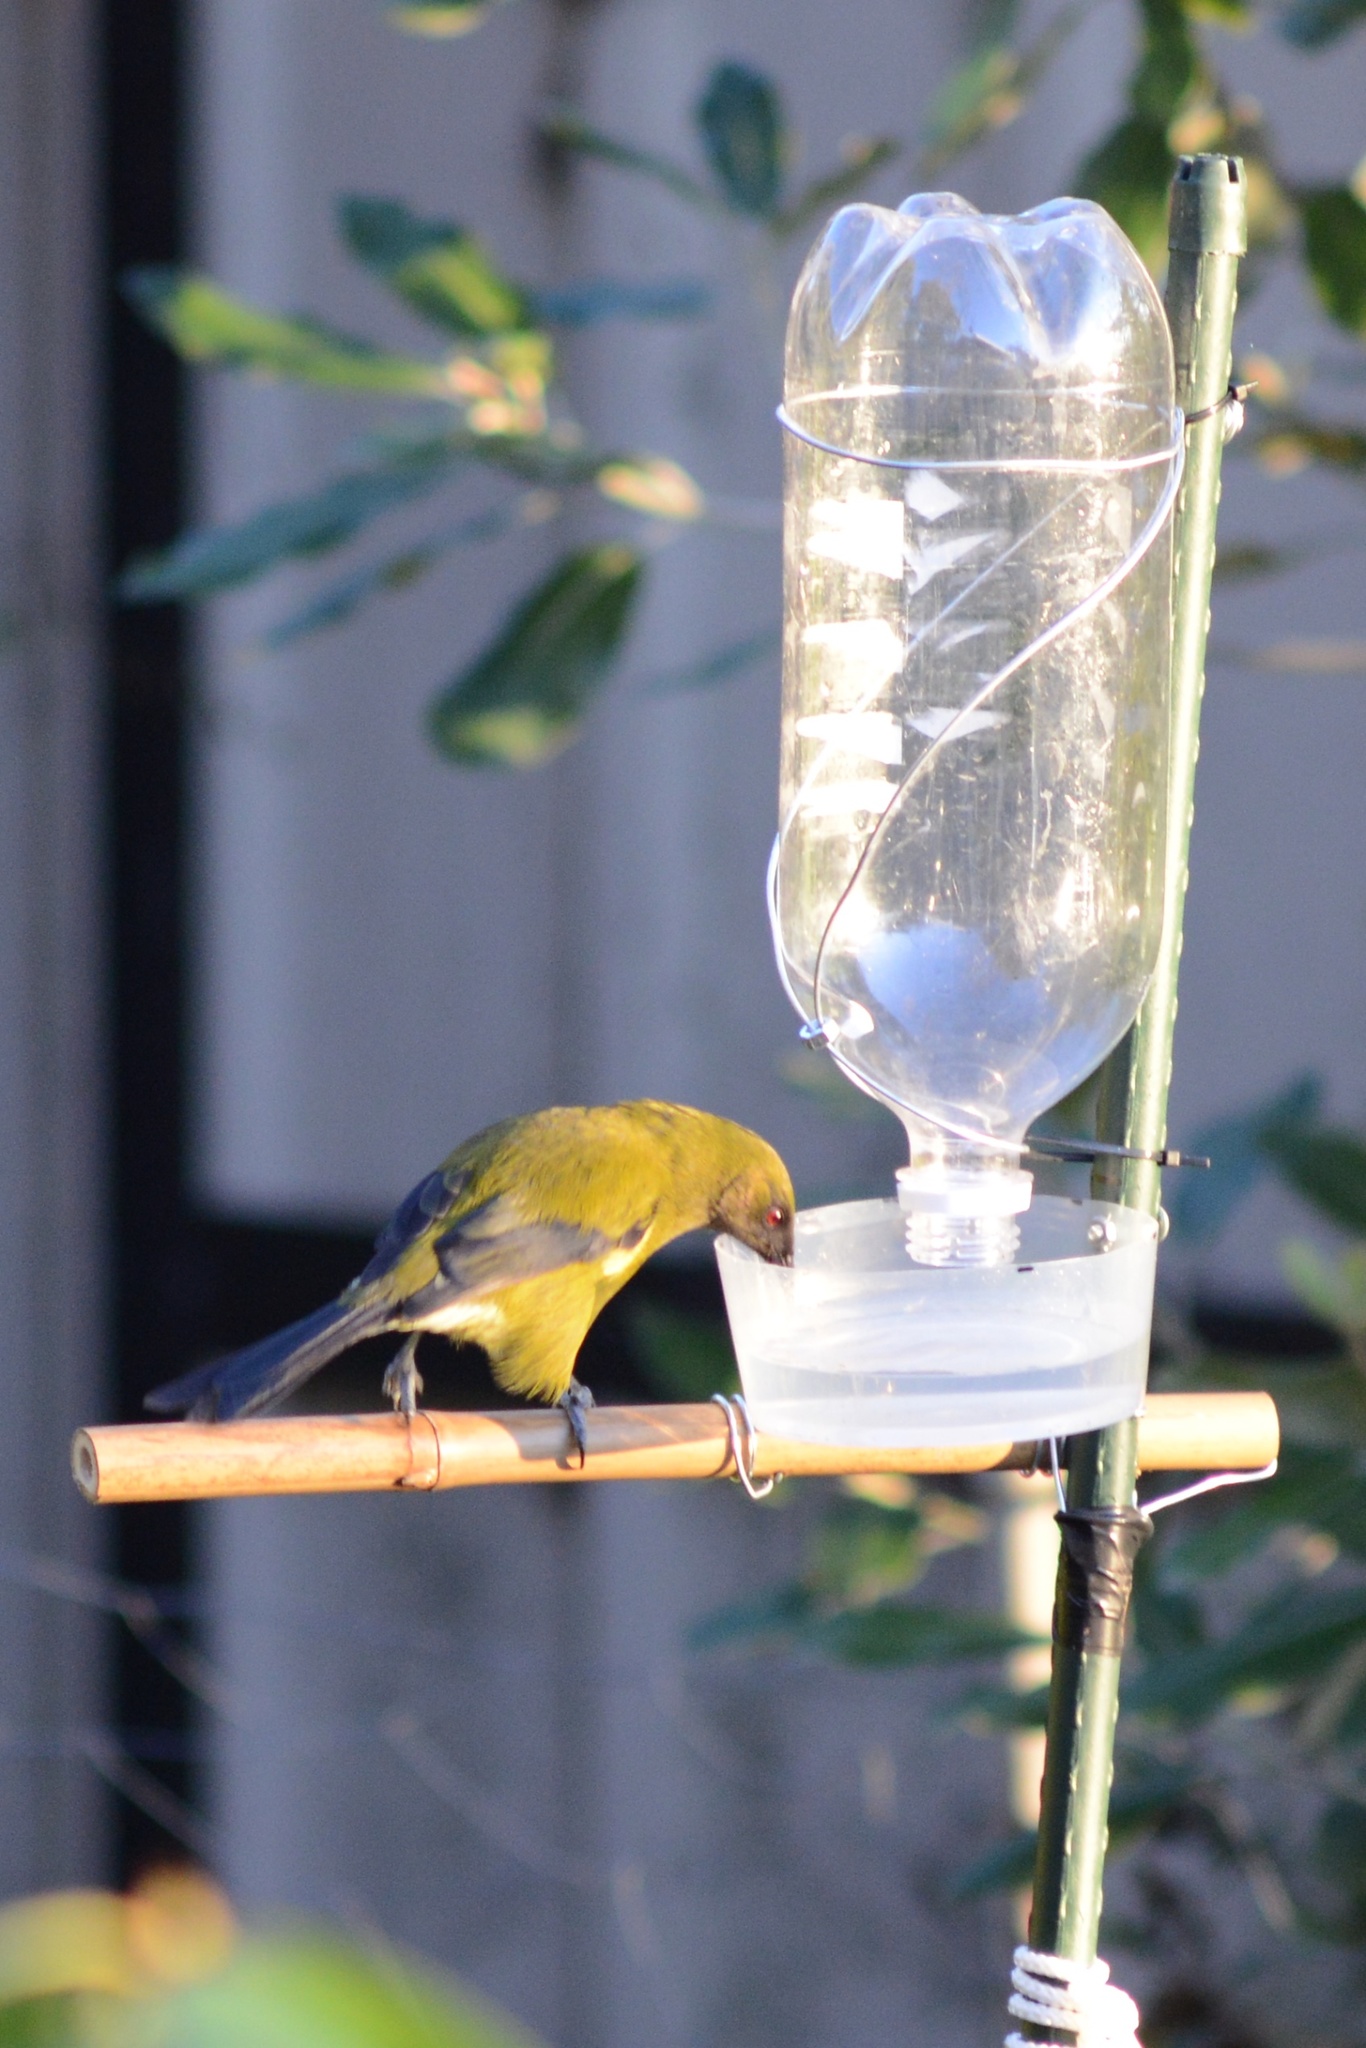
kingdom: Animalia
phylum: Chordata
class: Aves
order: Passeriformes
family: Meliphagidae
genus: Anthornis
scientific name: Anthornis melanura
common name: New zealand bellbird
